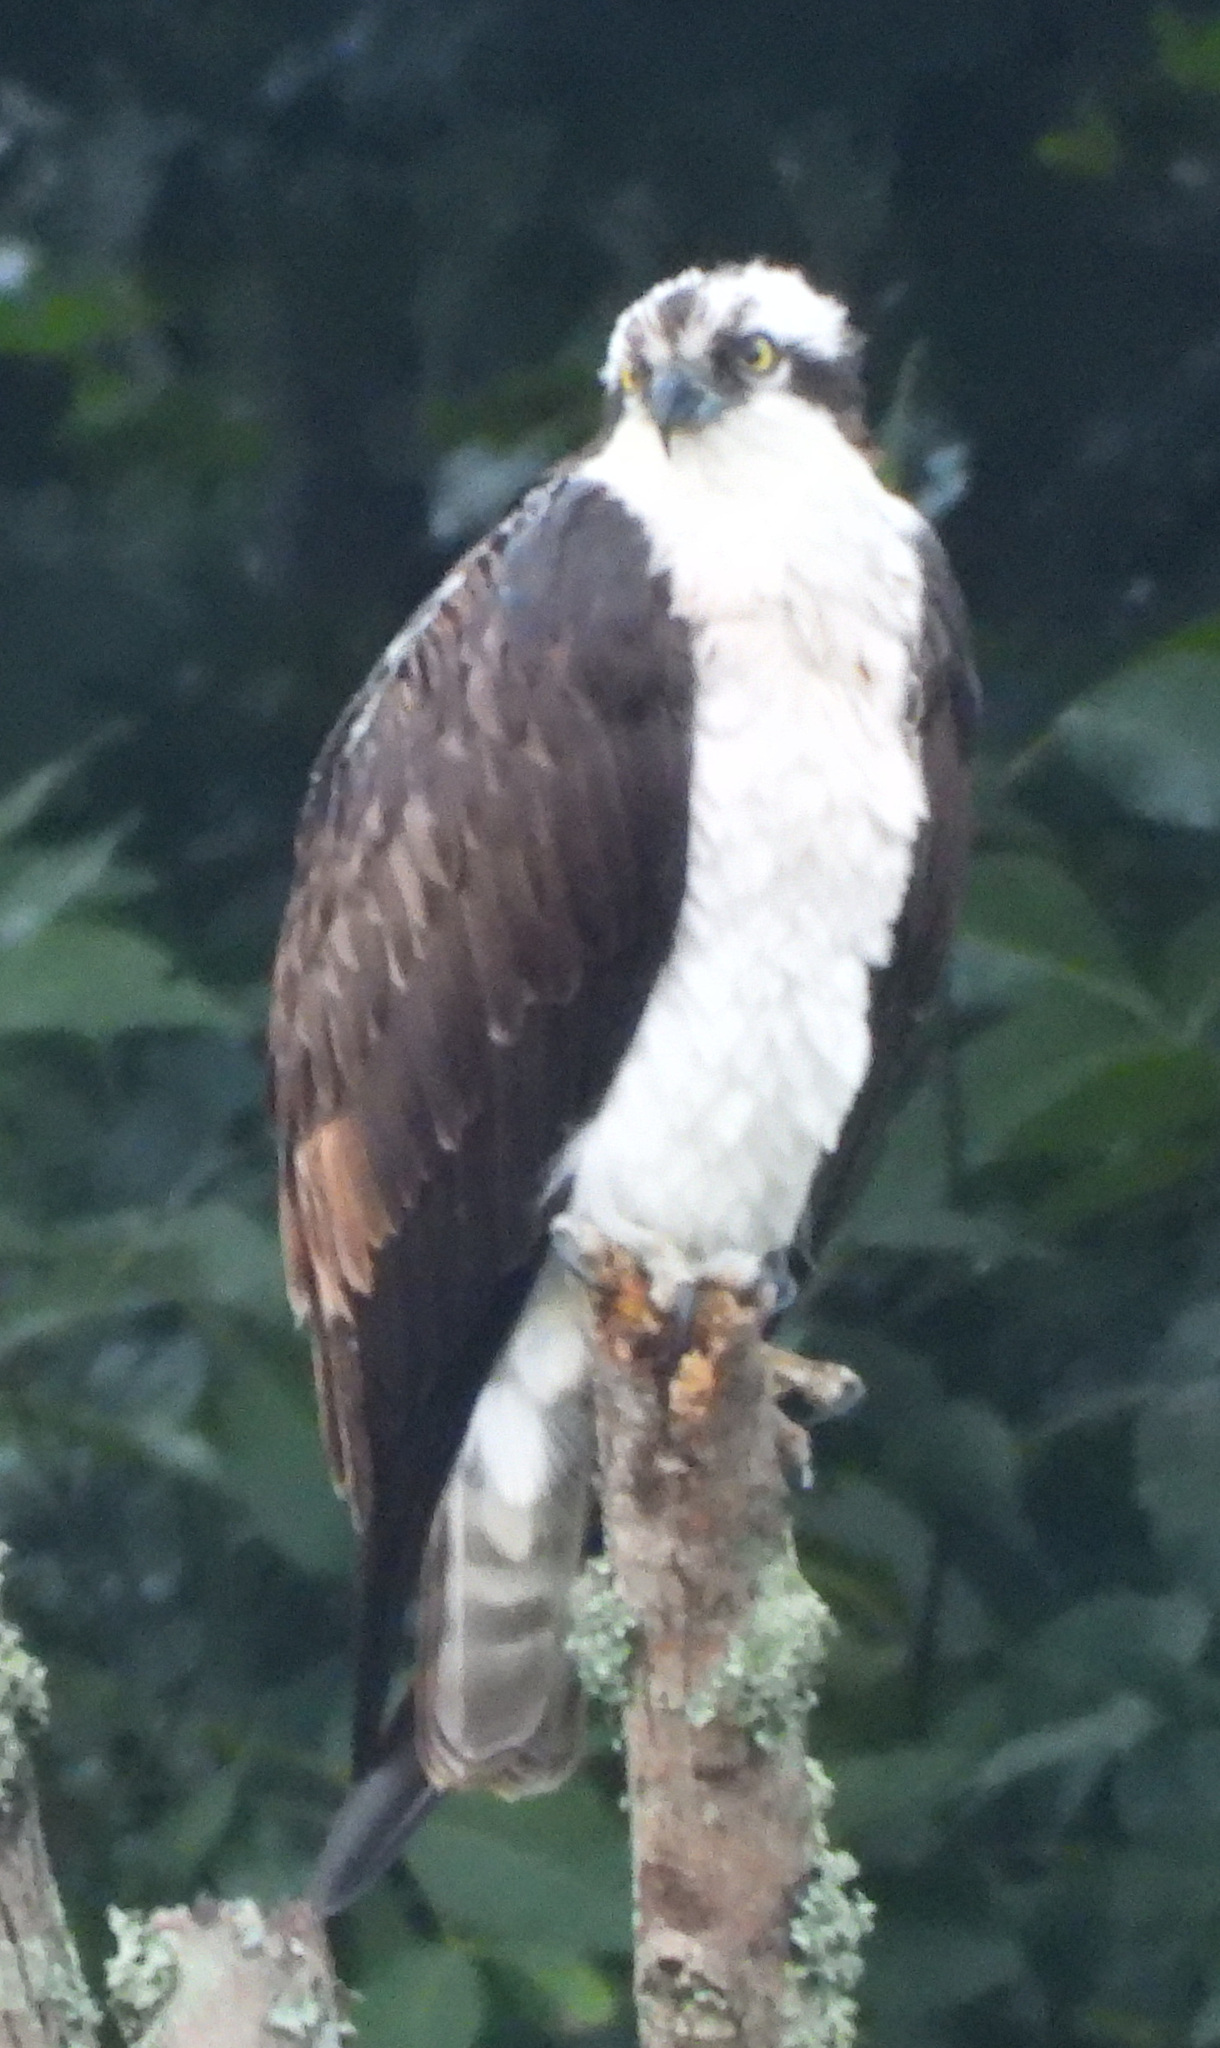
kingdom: Animalia
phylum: Chordata
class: Aves
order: Accipitriformes
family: Pandionidae
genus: Pandion
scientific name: Pandion haliaetus
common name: Osprey
